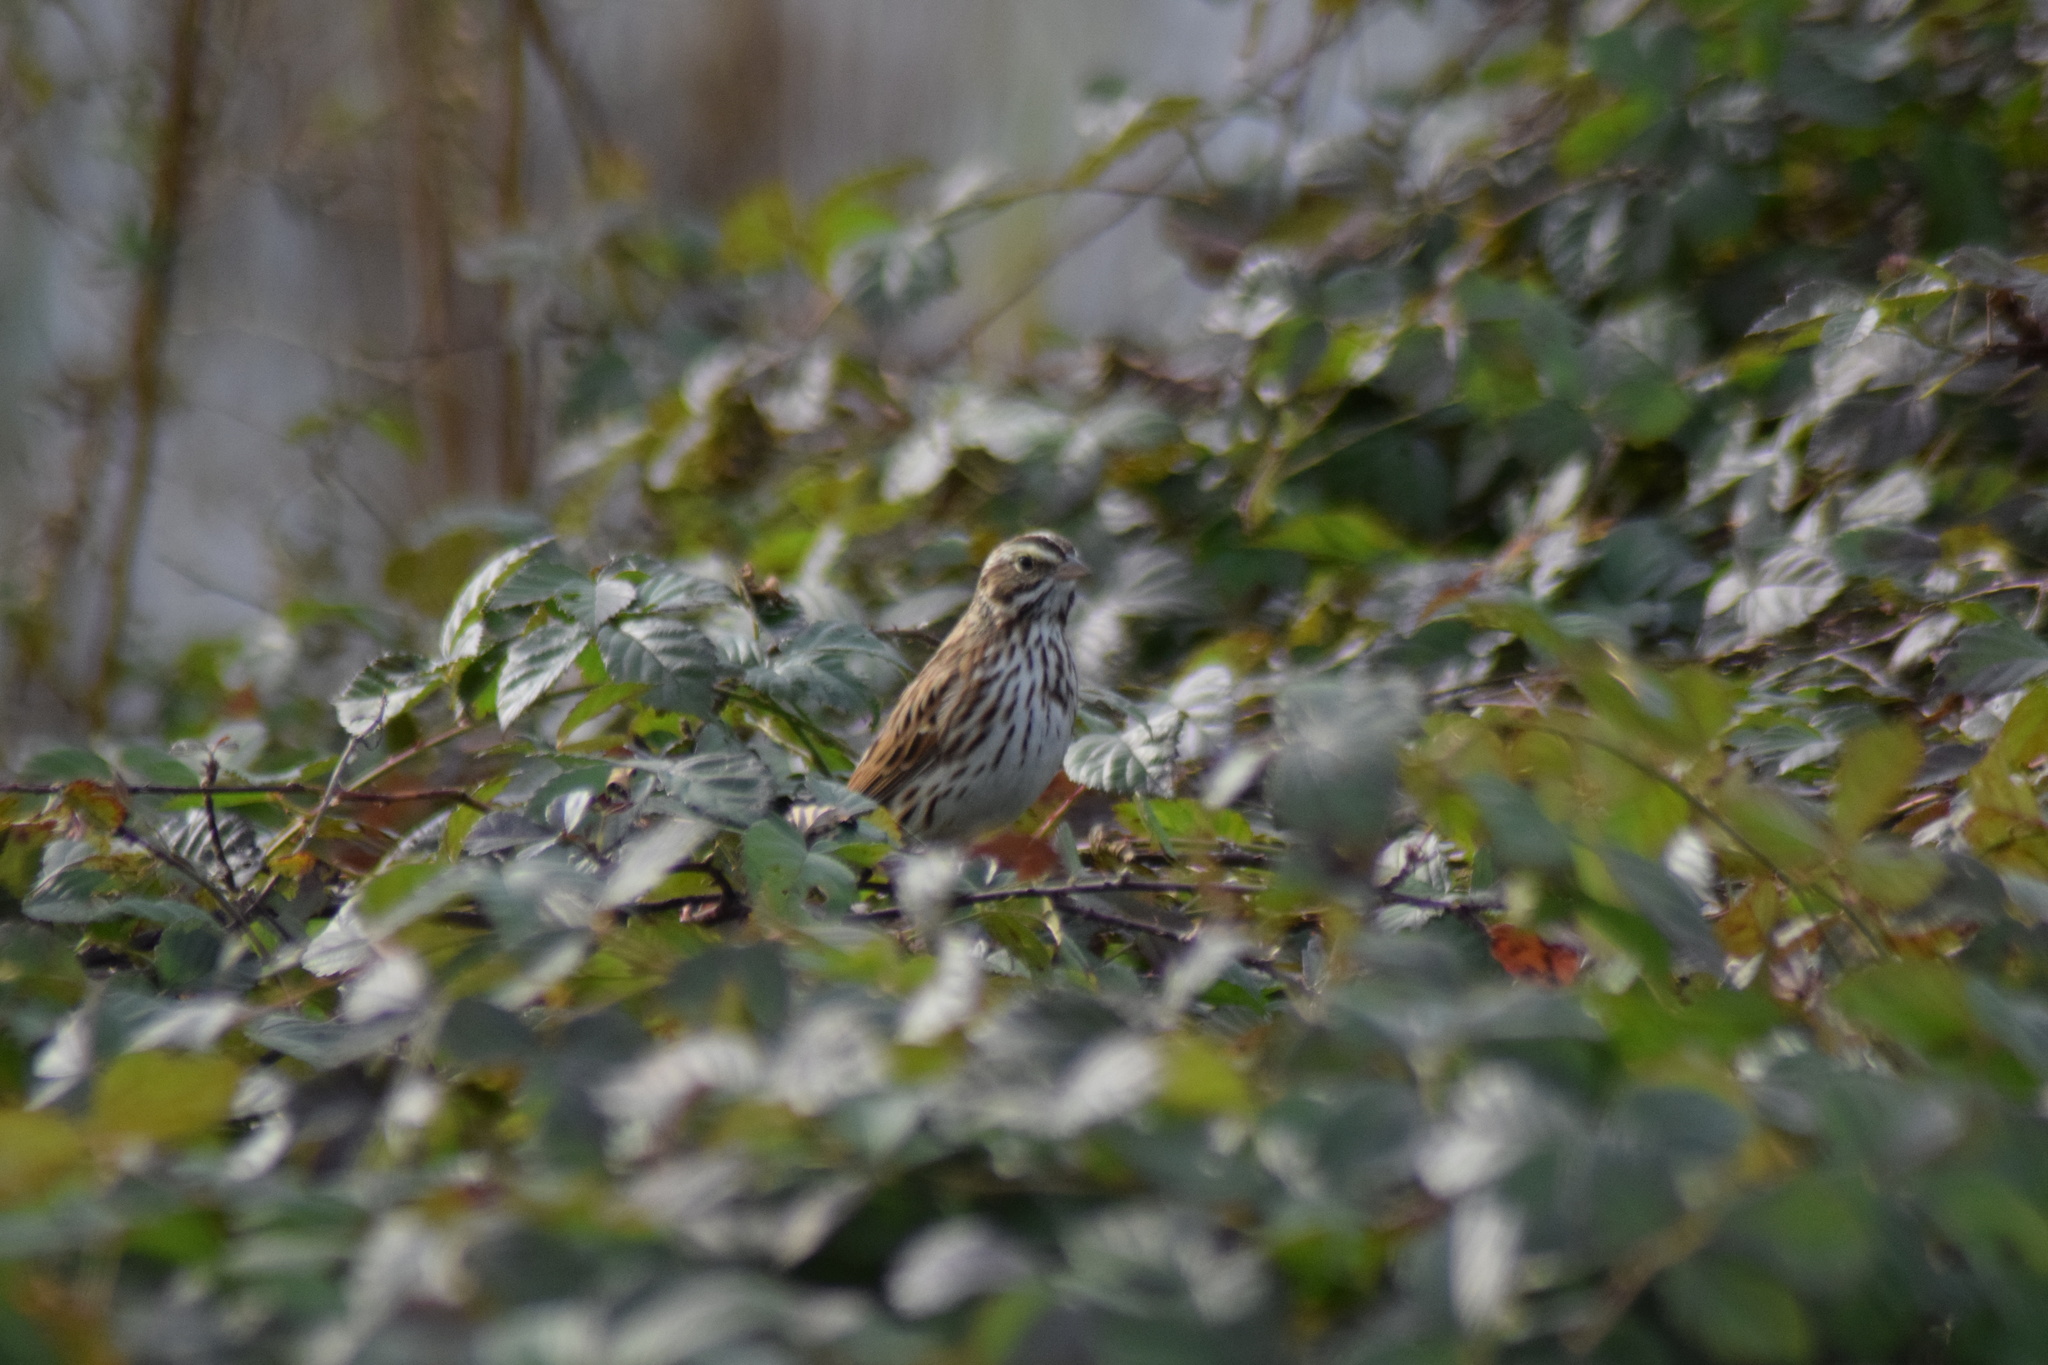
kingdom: Animalia
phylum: Chordata
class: Aves
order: Passeriformes
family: Passerellidae
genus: Passerculus
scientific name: Passerculus sandwichensis
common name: Savannah sparrow
